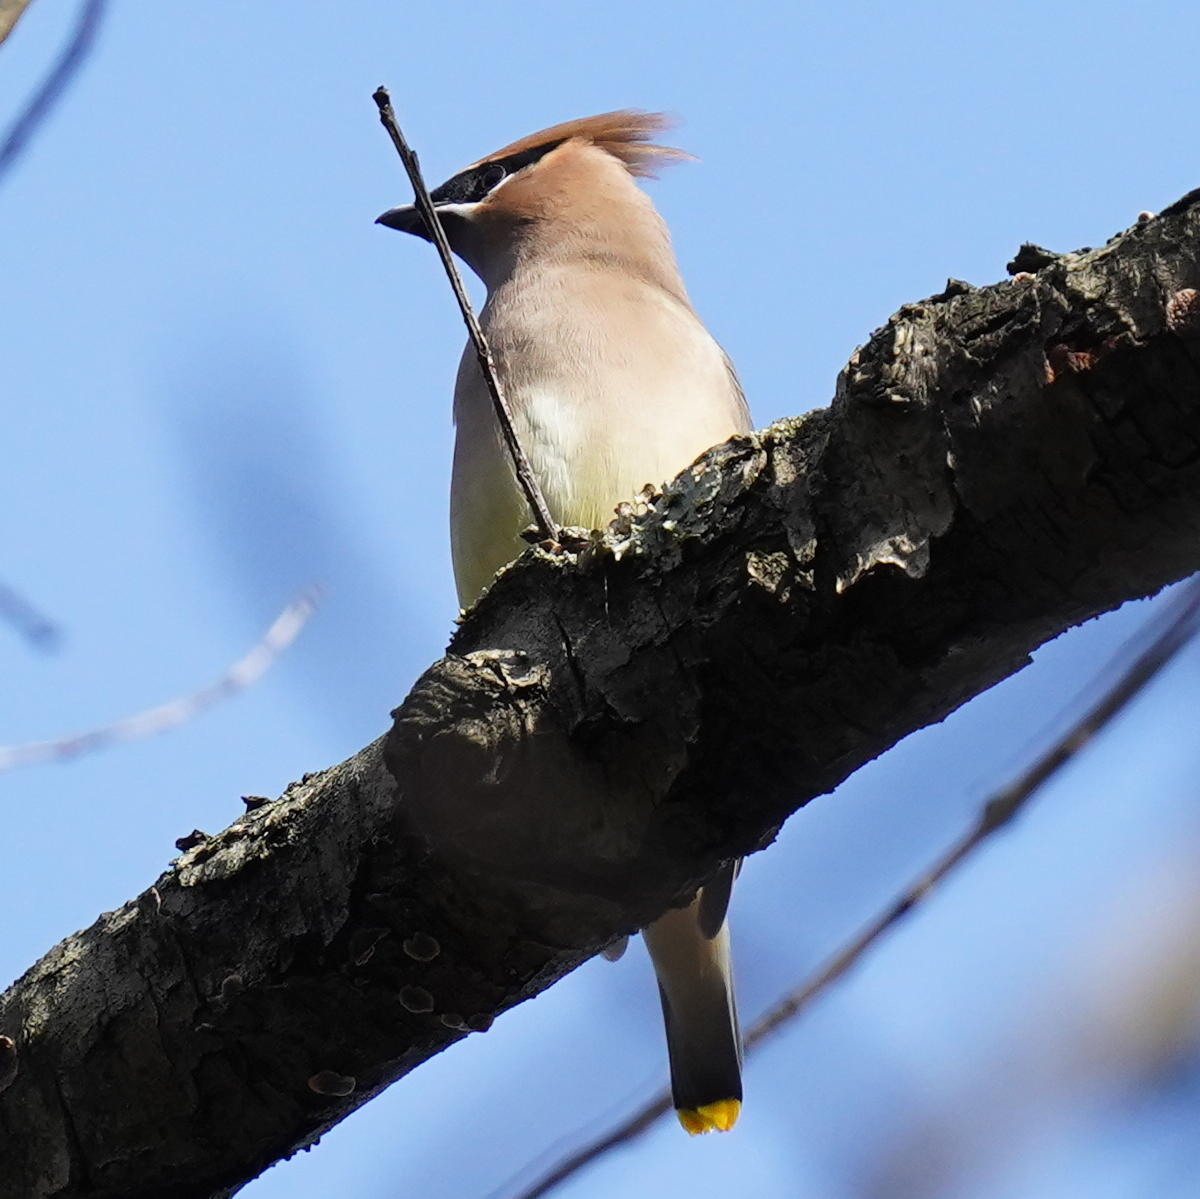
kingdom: Animalia
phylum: Chordata
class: Aves
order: Passeriformes
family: Bombycillidae
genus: Bombycilla
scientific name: Bombycilla cedrorum
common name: Cedar waxwing
